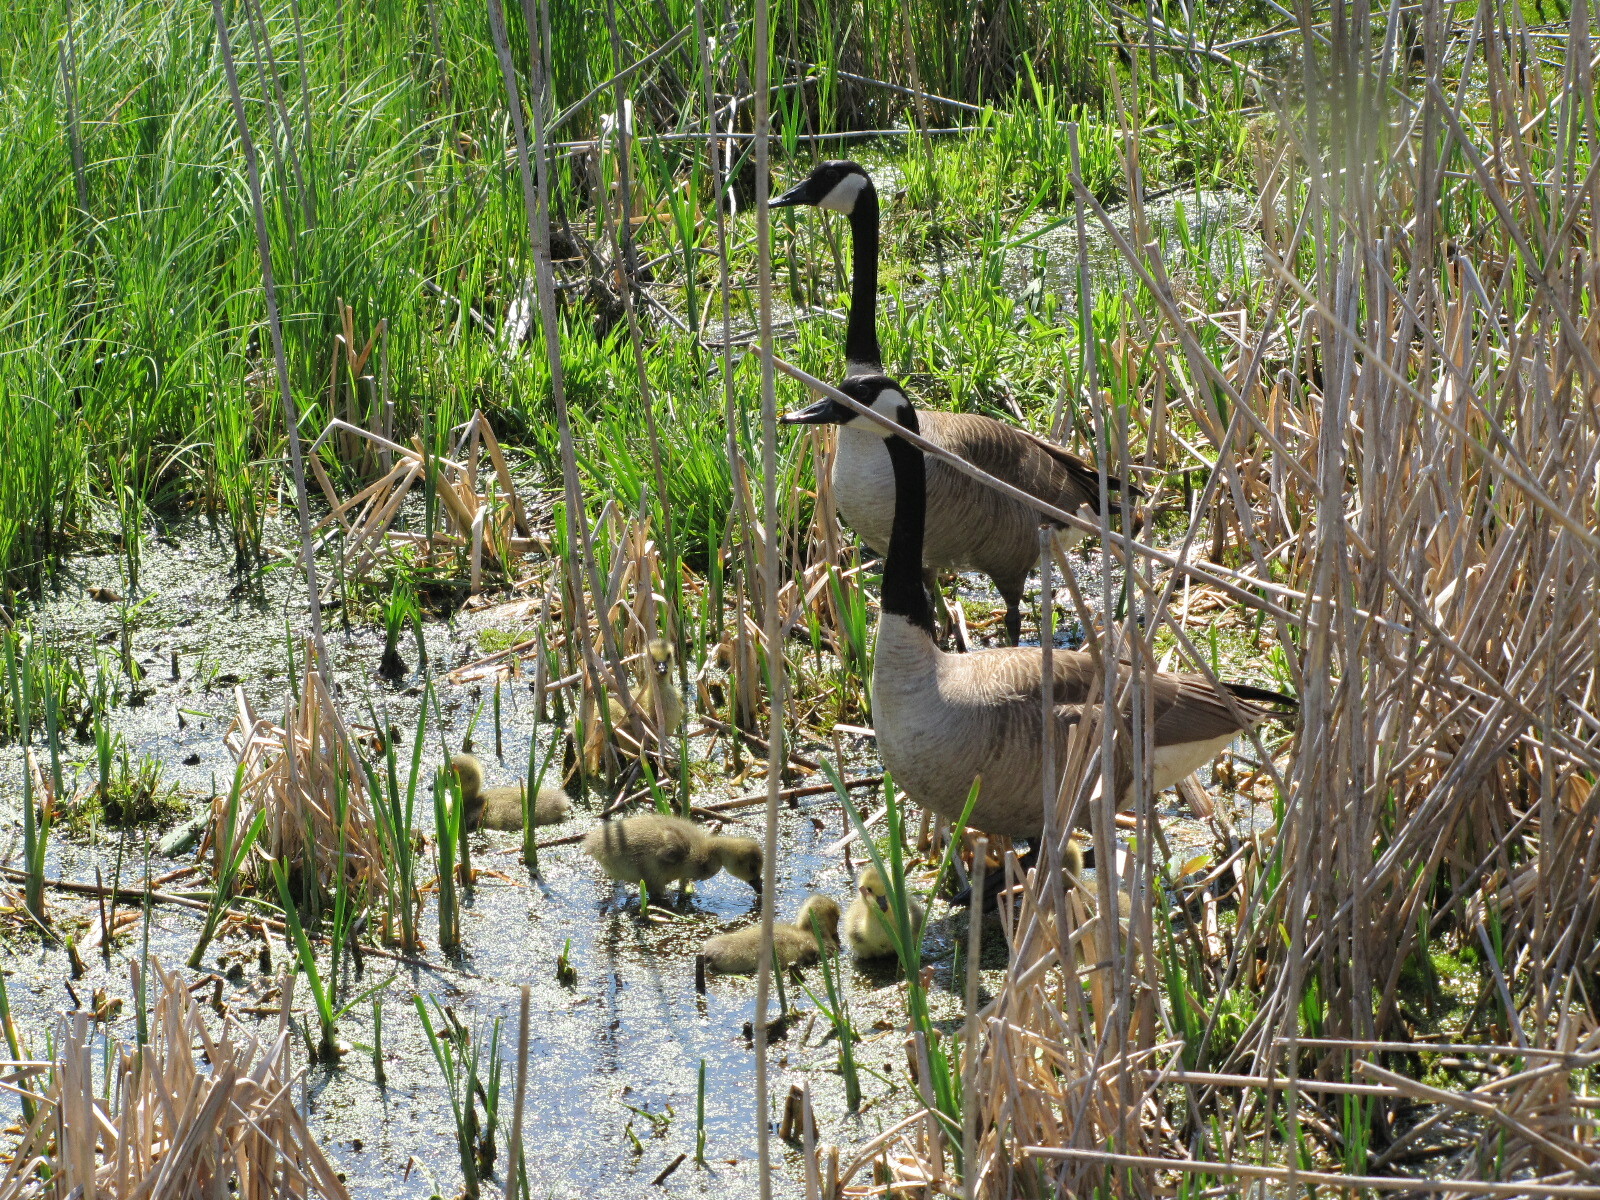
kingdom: Animalia
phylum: Chordata
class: Aves
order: Anseriformes
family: Anatidae
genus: Branta
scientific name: Branta canadensis
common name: Canada goose
